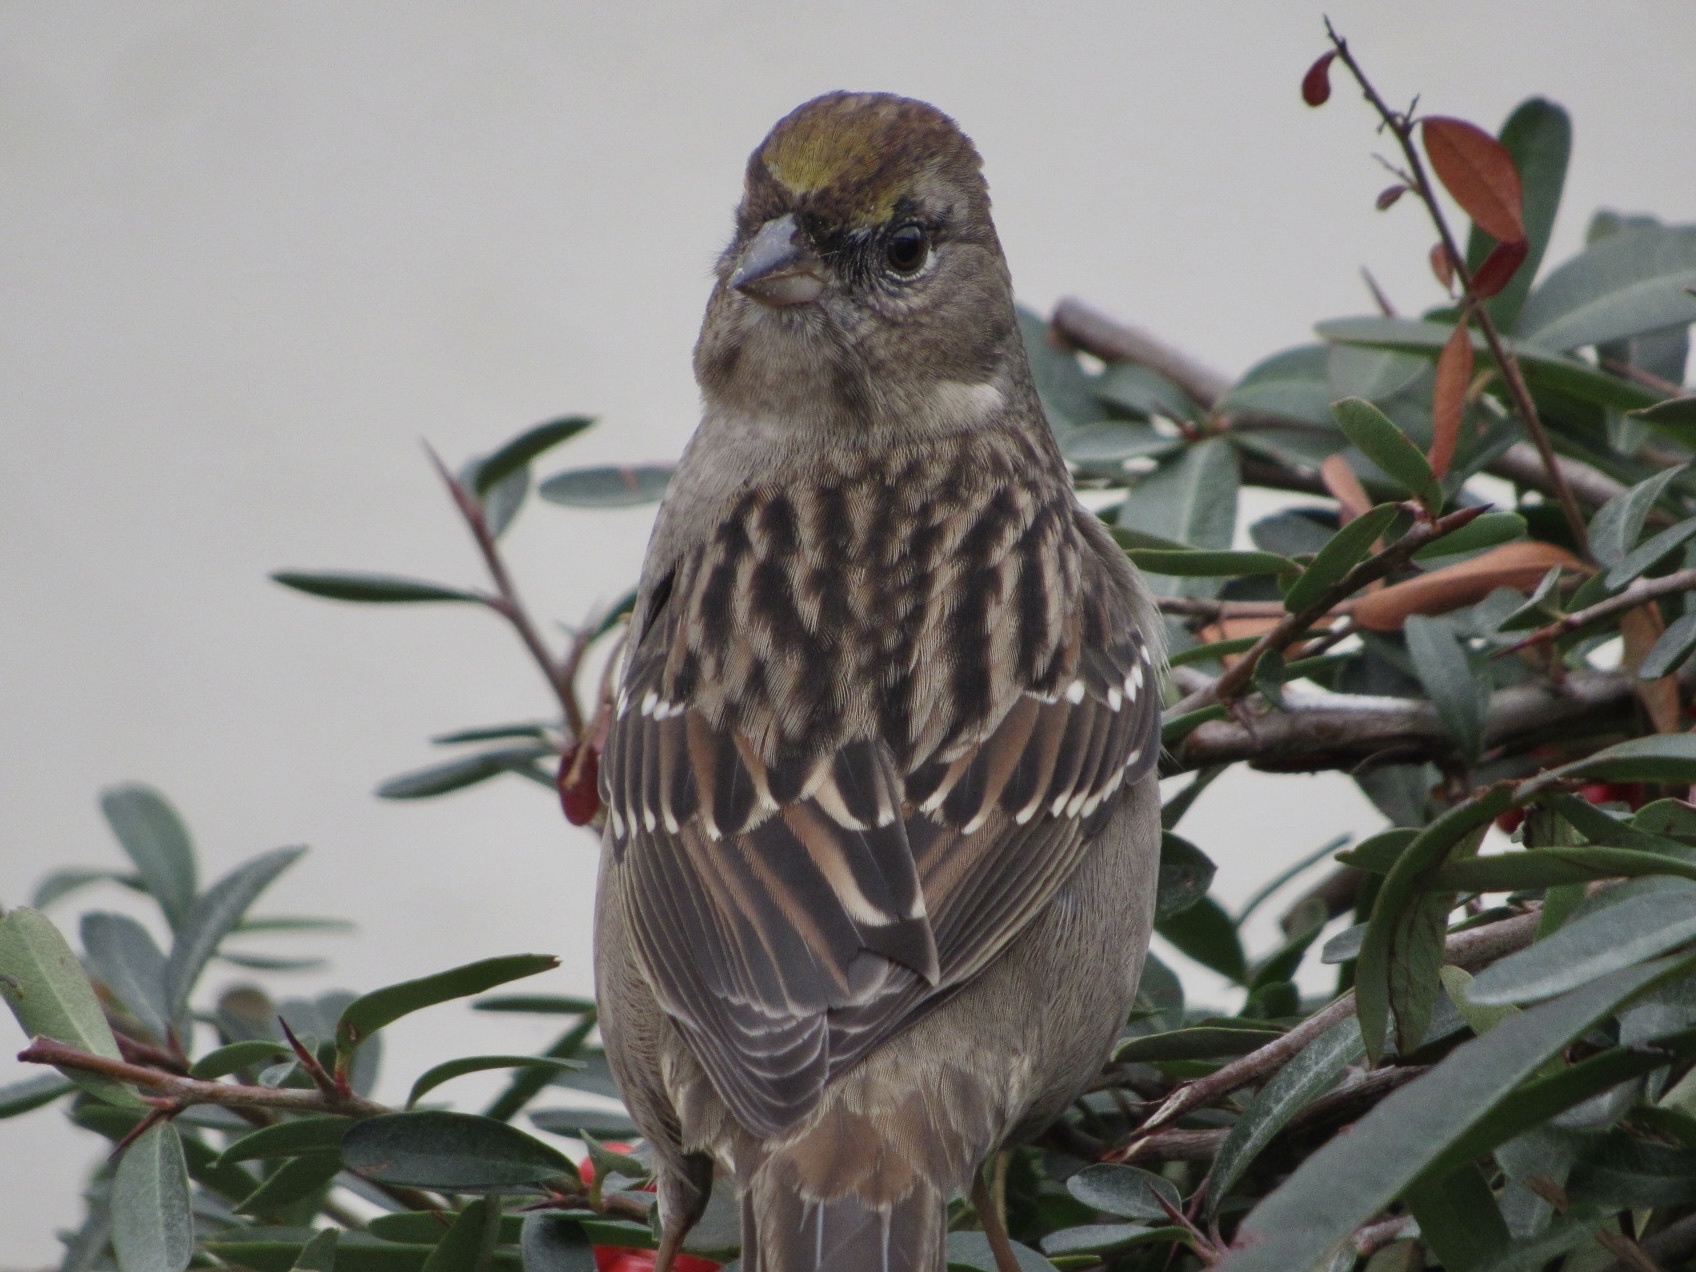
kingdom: Animalia
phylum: Chordata
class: Aves
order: Passeriformes
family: Passerellidae
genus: Zonotrichia
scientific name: Zonotrichia atricapilla
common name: Golden-crowned sparrow
